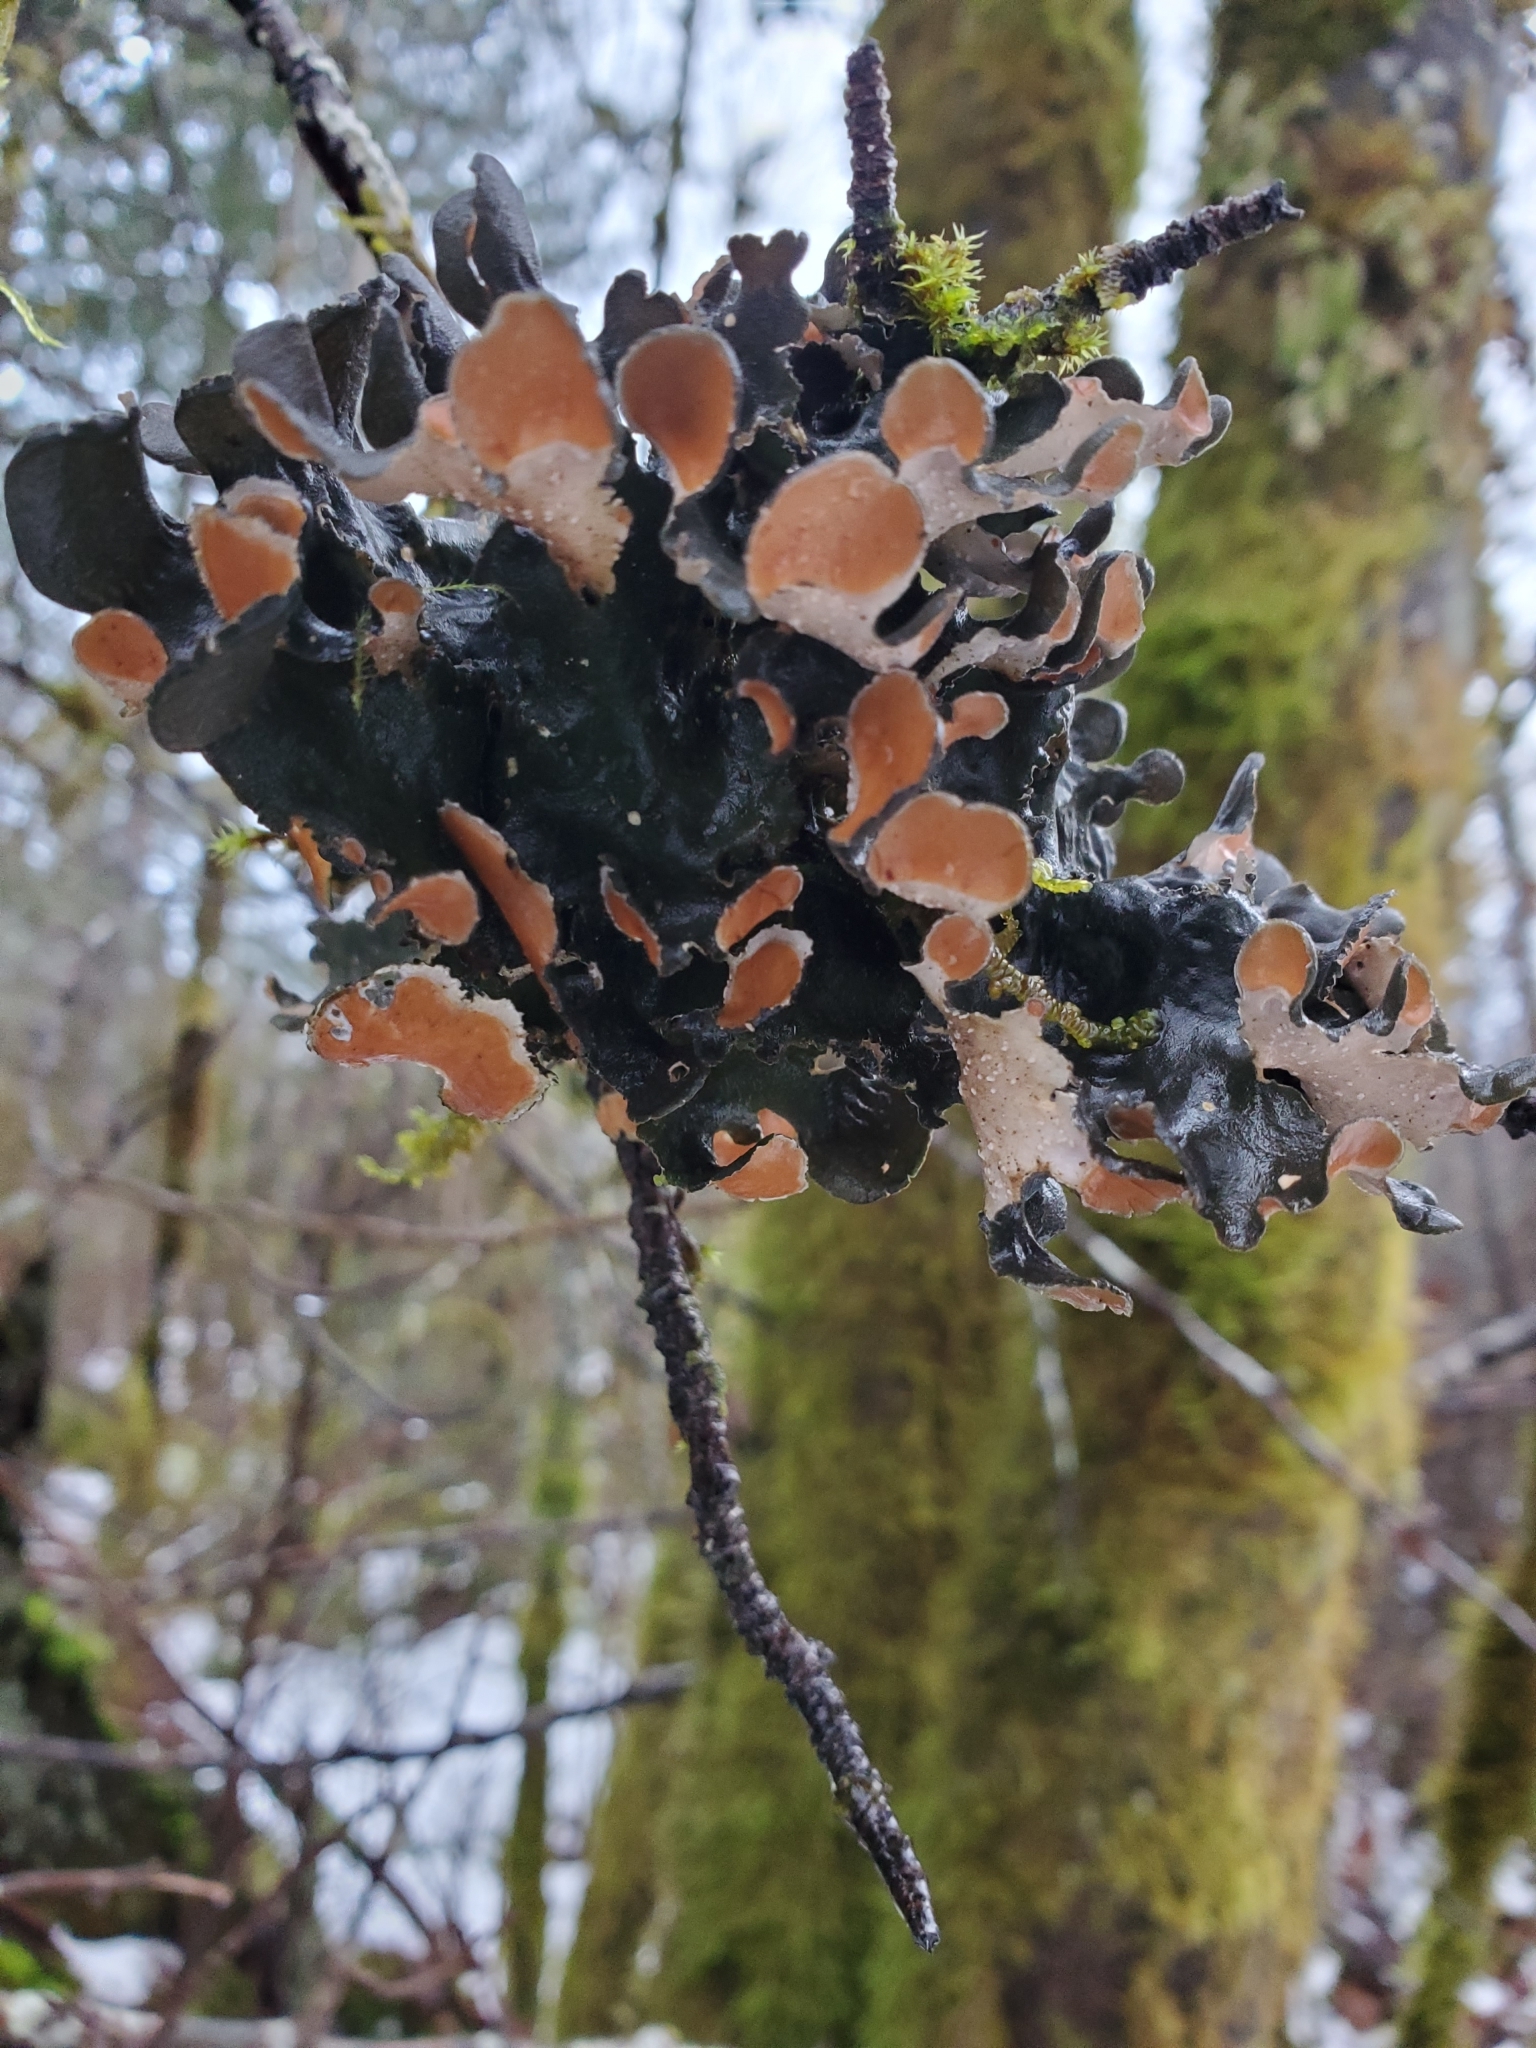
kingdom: Fungi
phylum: Ascomycota
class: Lecanoromycetes
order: Peltigerales
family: Nephromataceae
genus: Nephroma
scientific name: Nephroma resupinatum
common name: Pimpled kidney lichen
